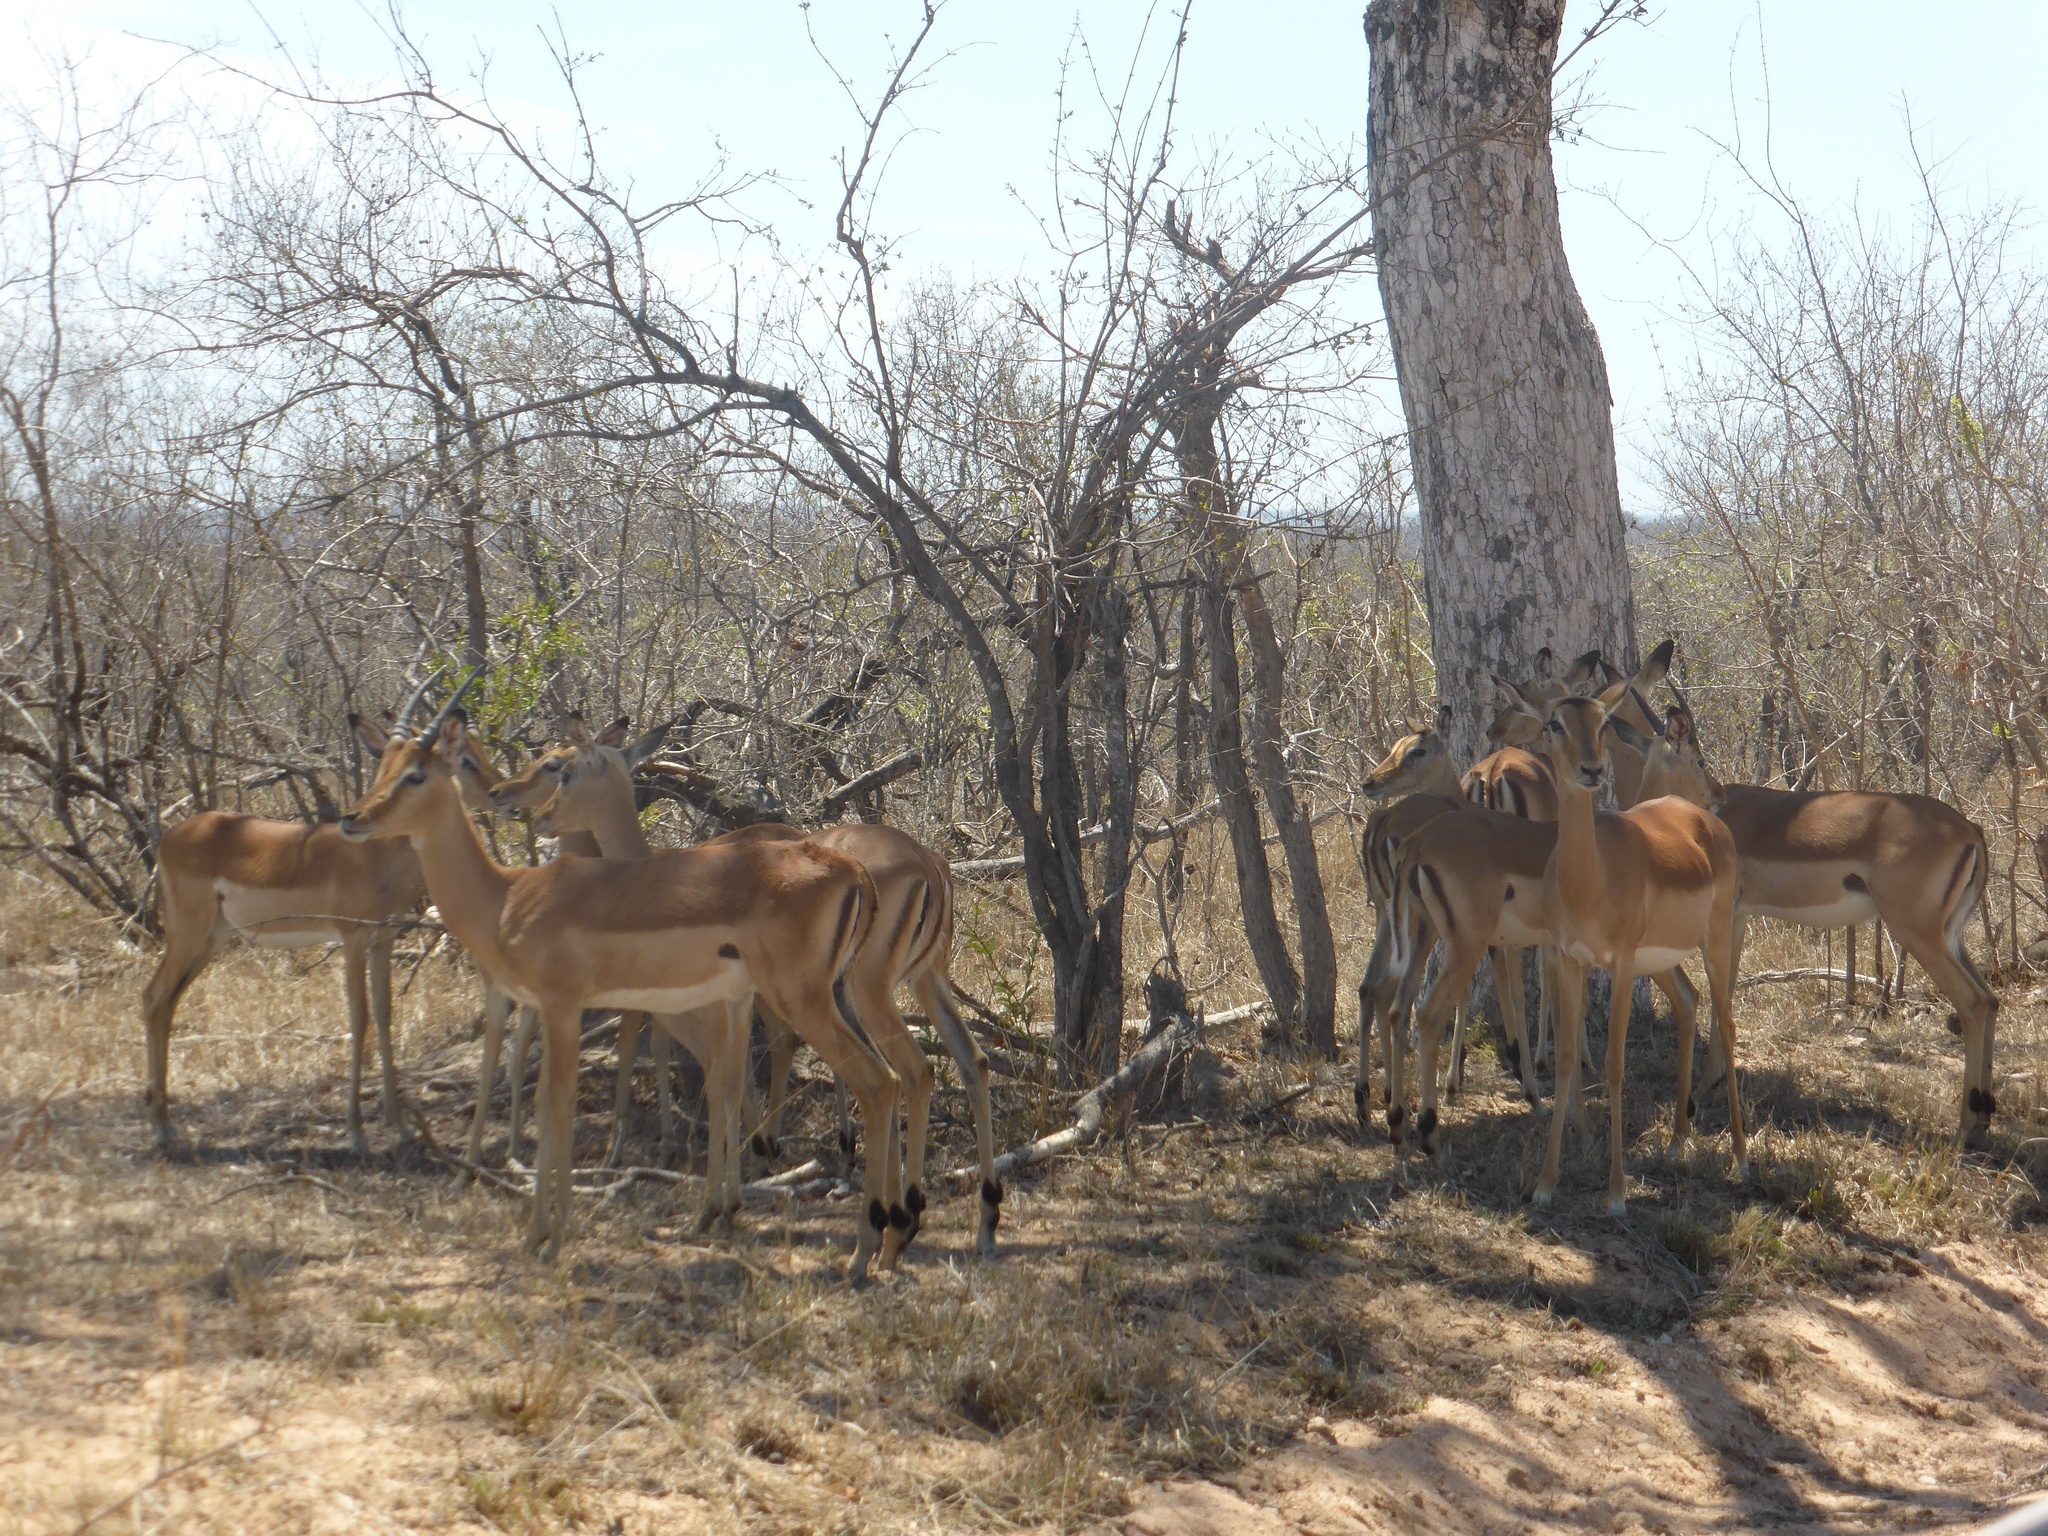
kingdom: Animalia
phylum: Chordata
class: Mammalia
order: Artiodactyla
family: Bovidae
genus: Aepyceros
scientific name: Aepyceros melampus
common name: Impala
